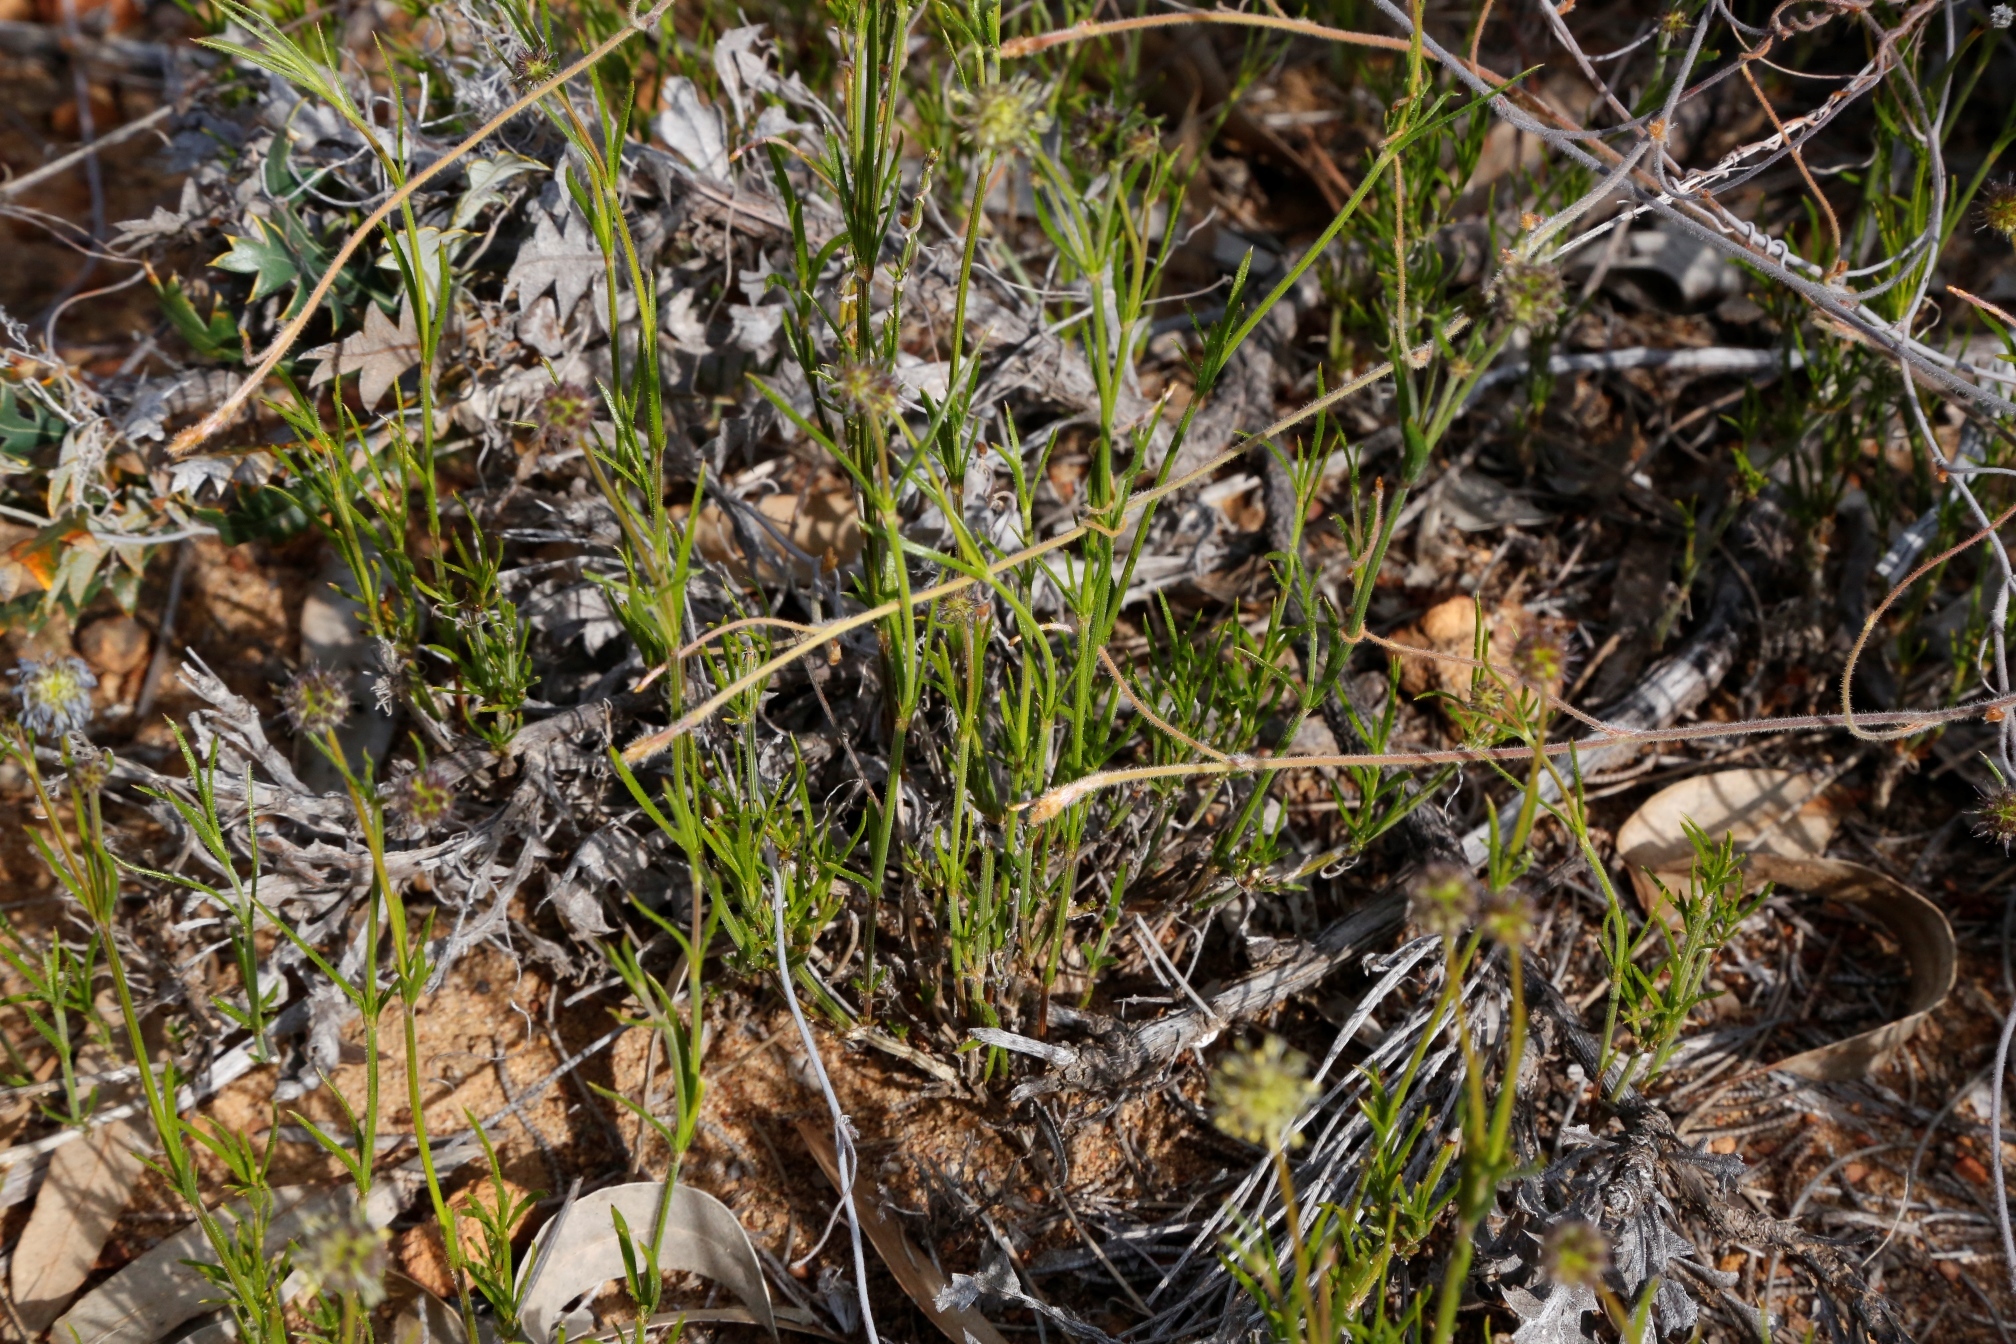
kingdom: Plantae
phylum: Tracheophyta
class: Magnoliopsida
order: Gentianales
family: Rubiaceae
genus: Opercularia
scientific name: Opercularia vaginata
